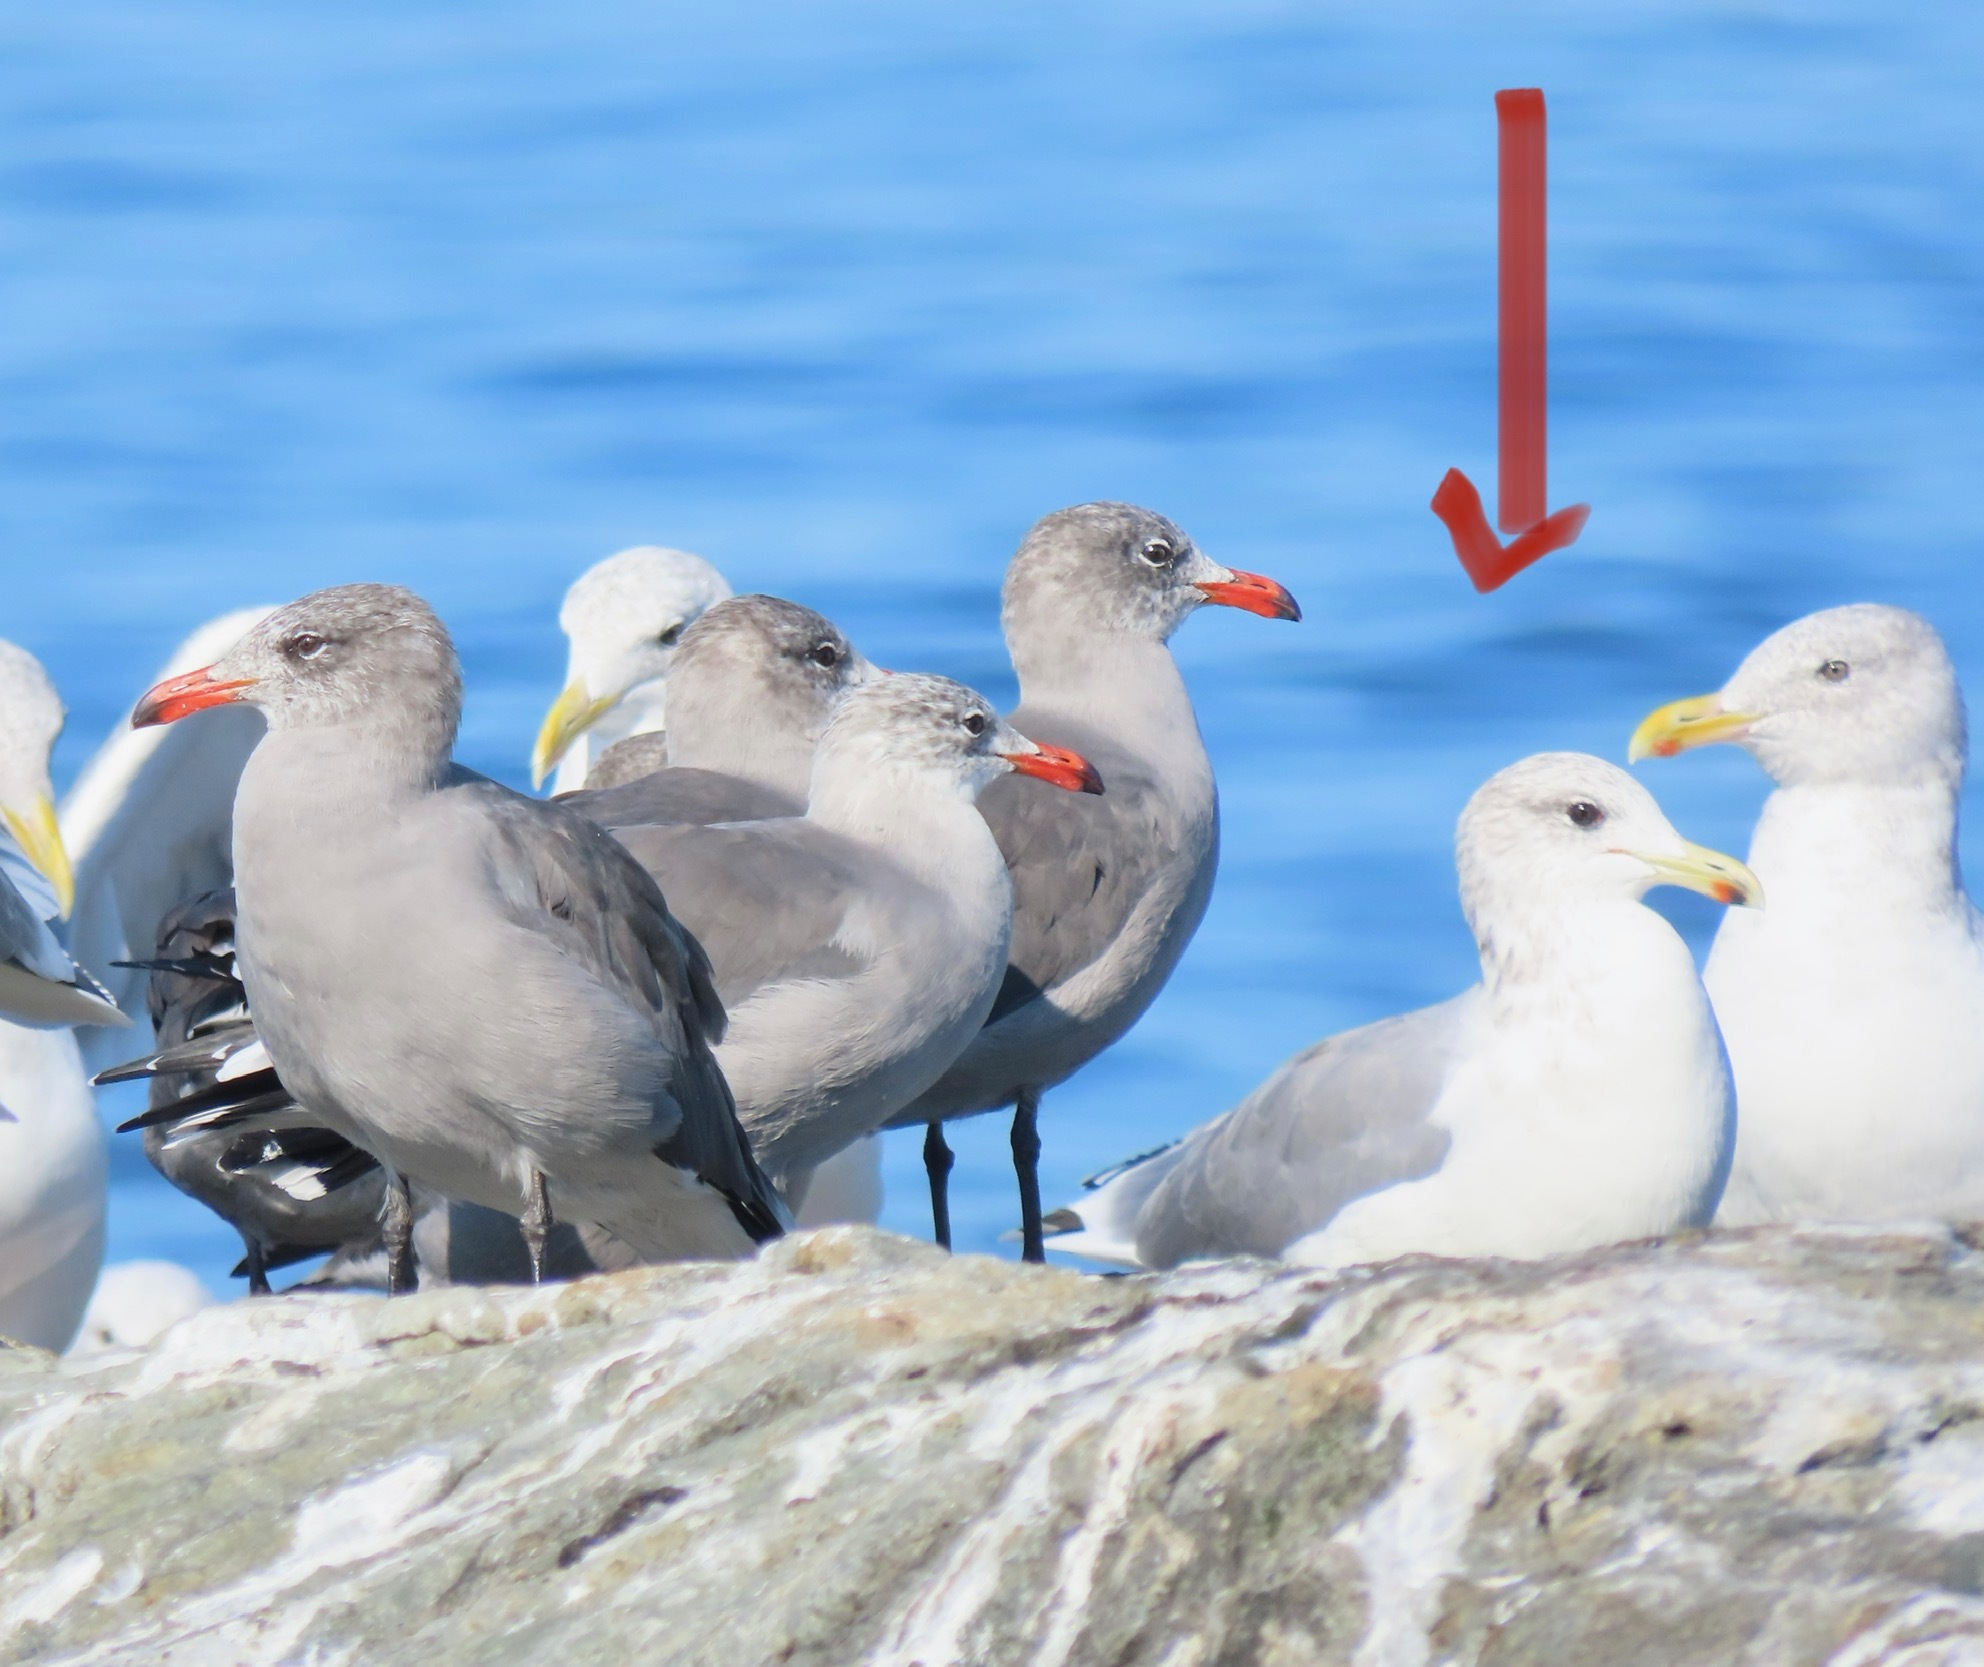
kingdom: Animalia
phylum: Chordata
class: Aves
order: Charadriiformes
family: Laridae
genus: Larus
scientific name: Larus californicus
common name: California gull
